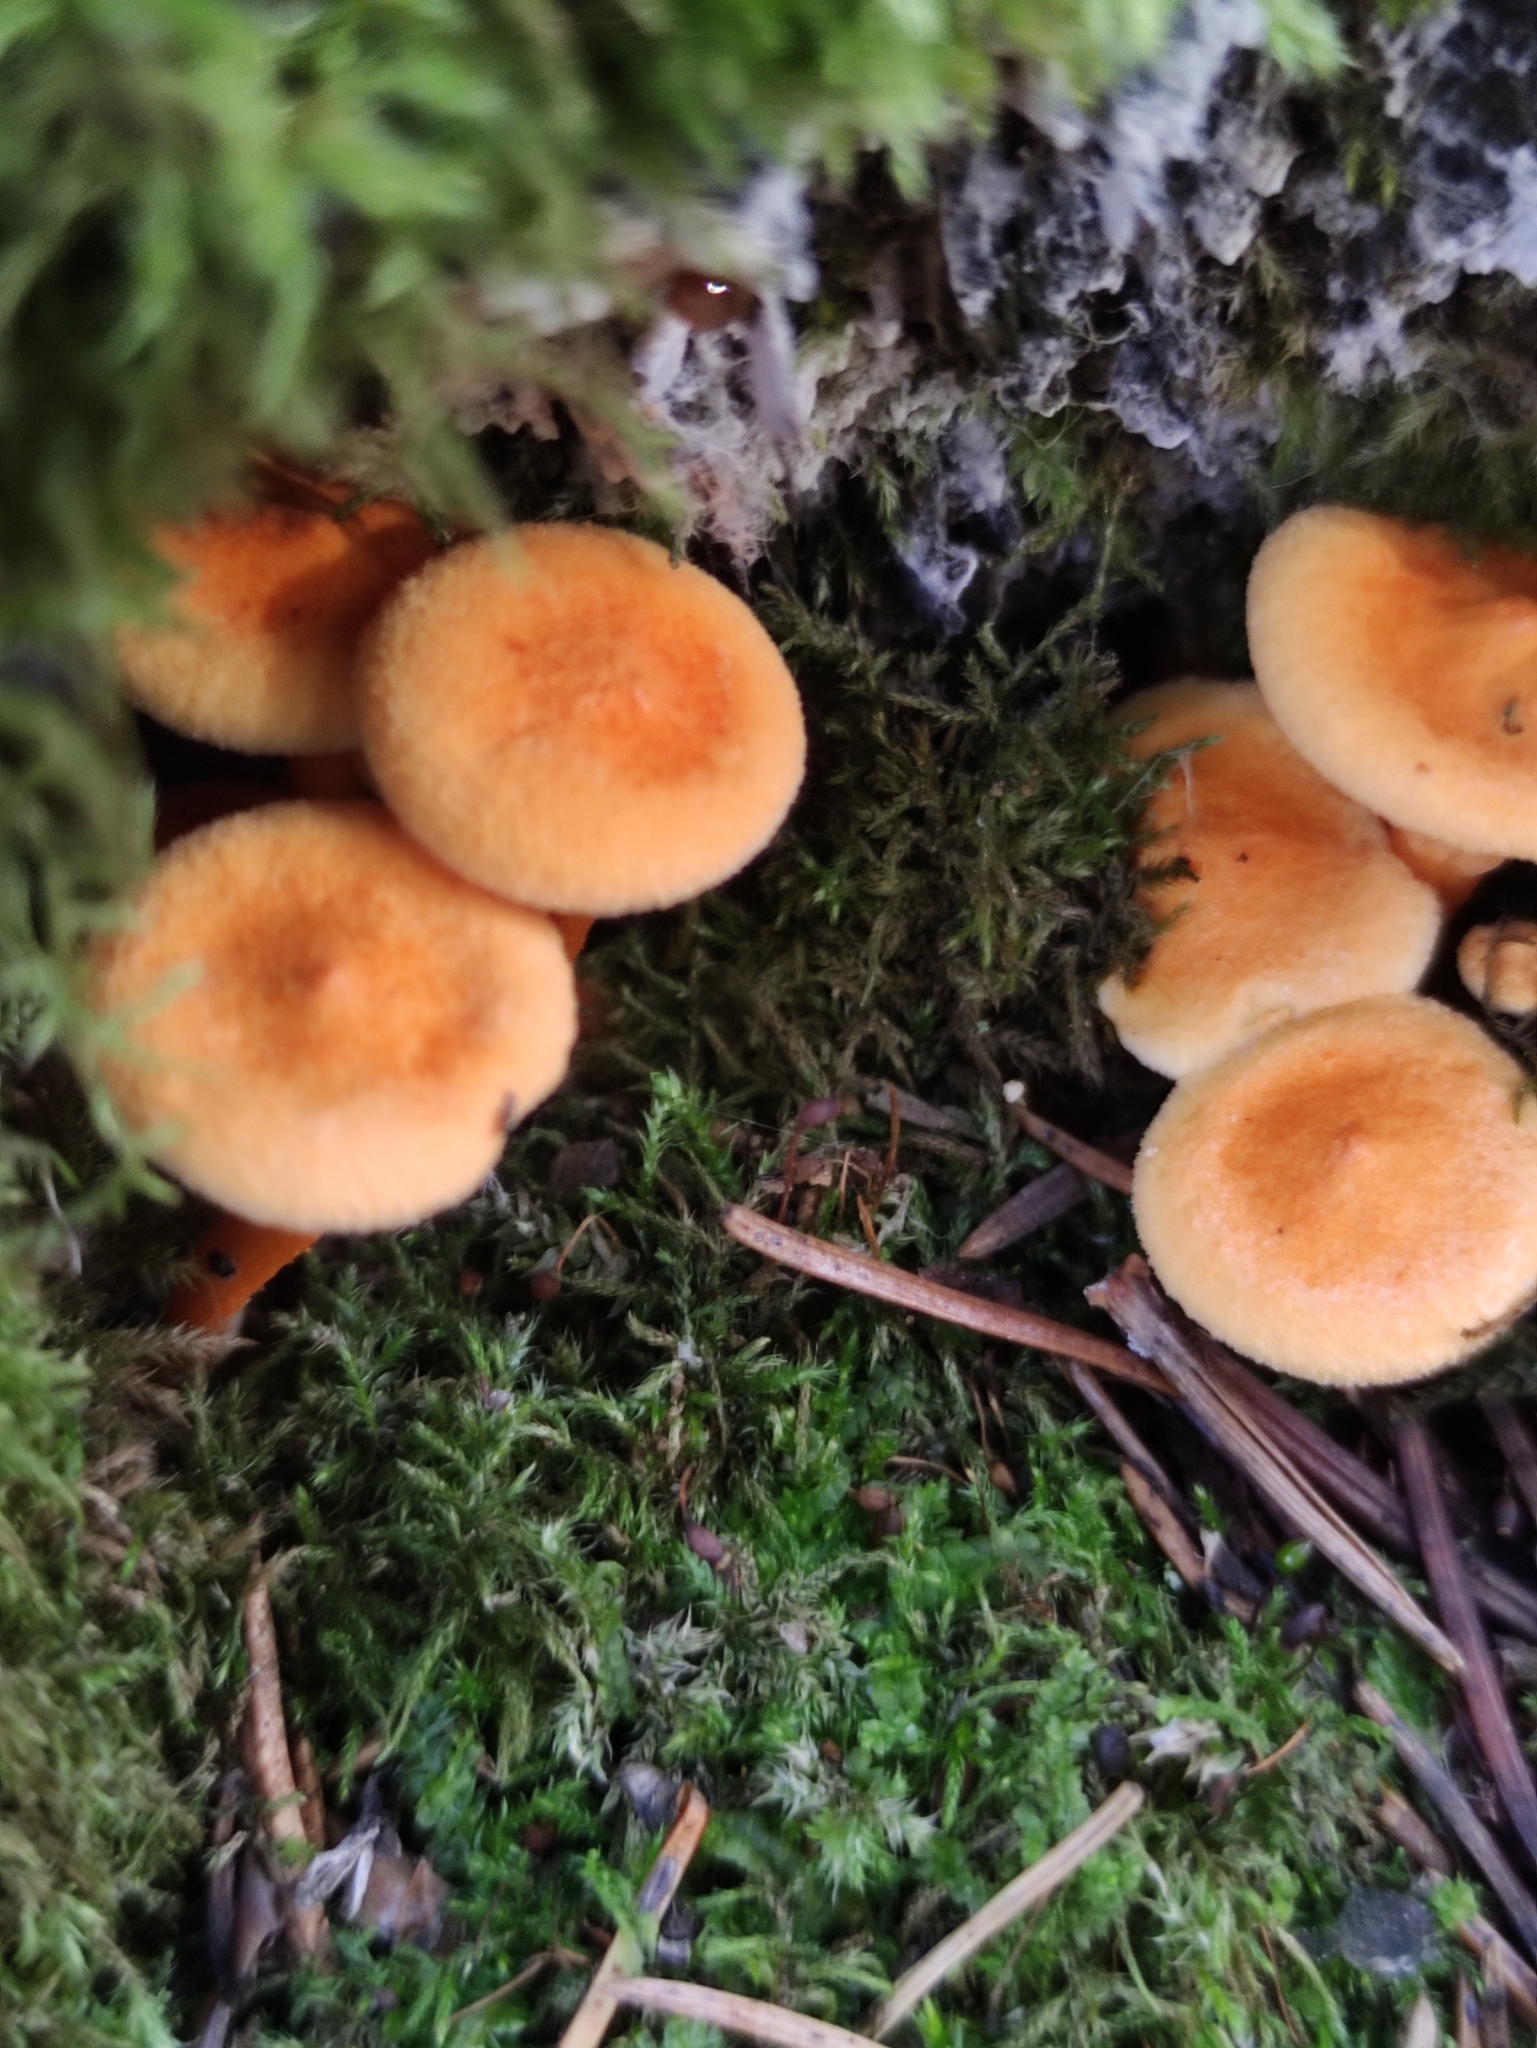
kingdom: Fungi
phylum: Basidiomycota
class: Agaricomycetes
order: Boletales
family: Hygrophoropsidaceae
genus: Hygrophoropsis
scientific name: Hygrophoropsis aurantiaca
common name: False chanterelle
